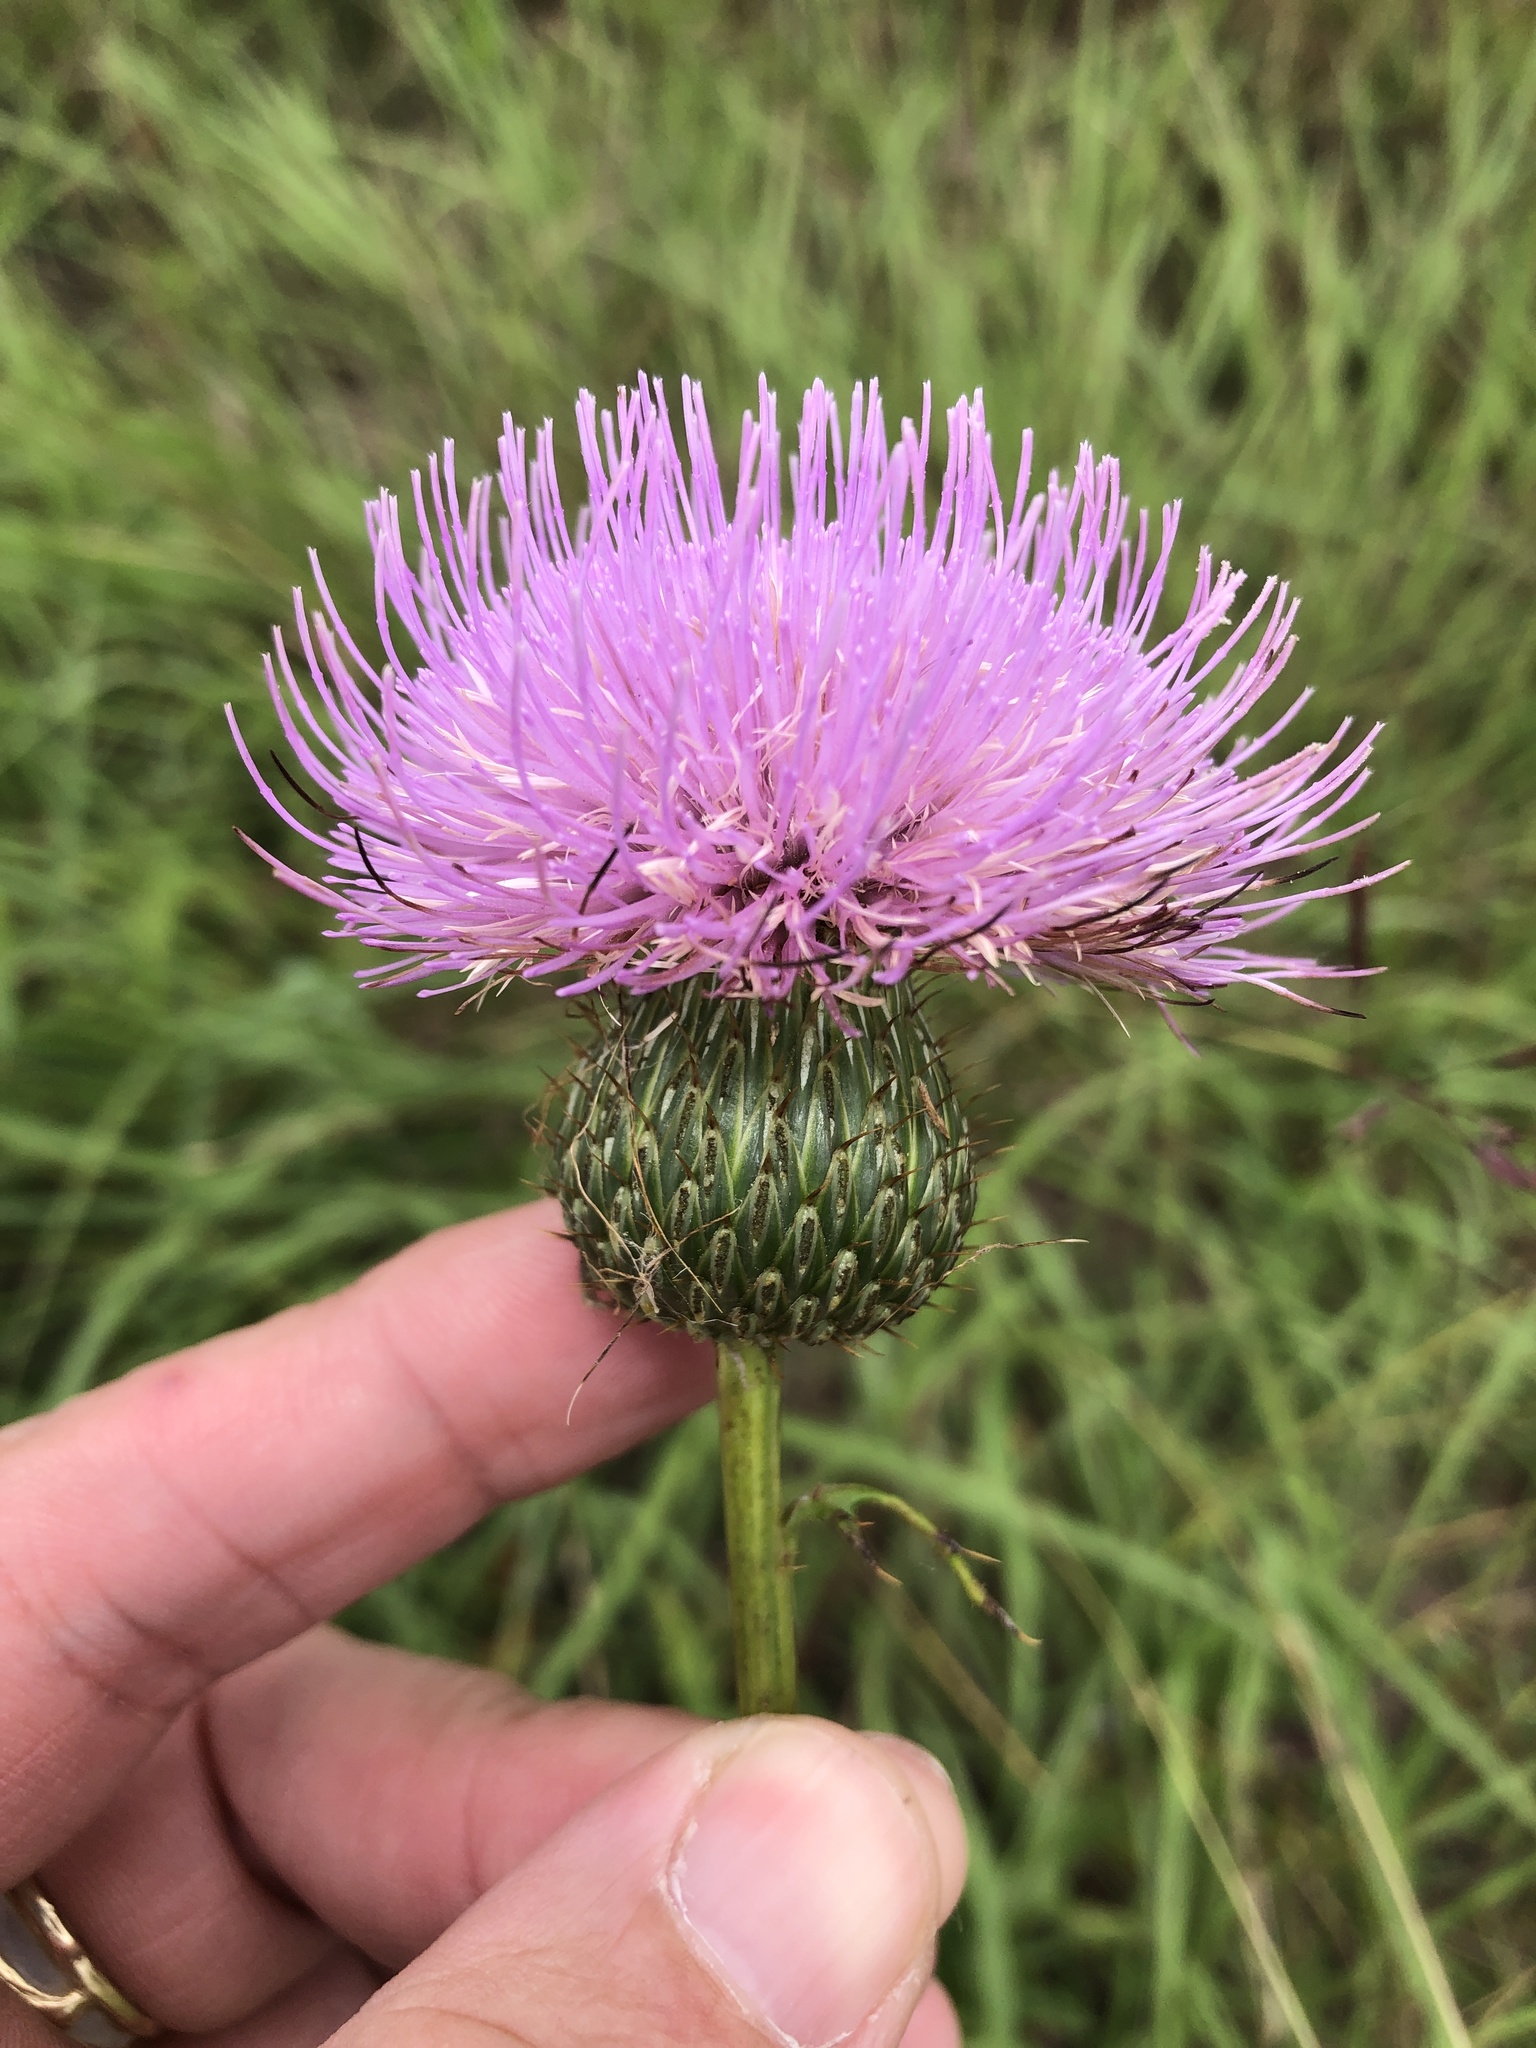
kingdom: Plantae
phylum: Tracheophyta
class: Magnoliopsida
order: Asterales
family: Asteraceae
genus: Cirsium
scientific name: Cirsium texanum
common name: Texas purple thistle
